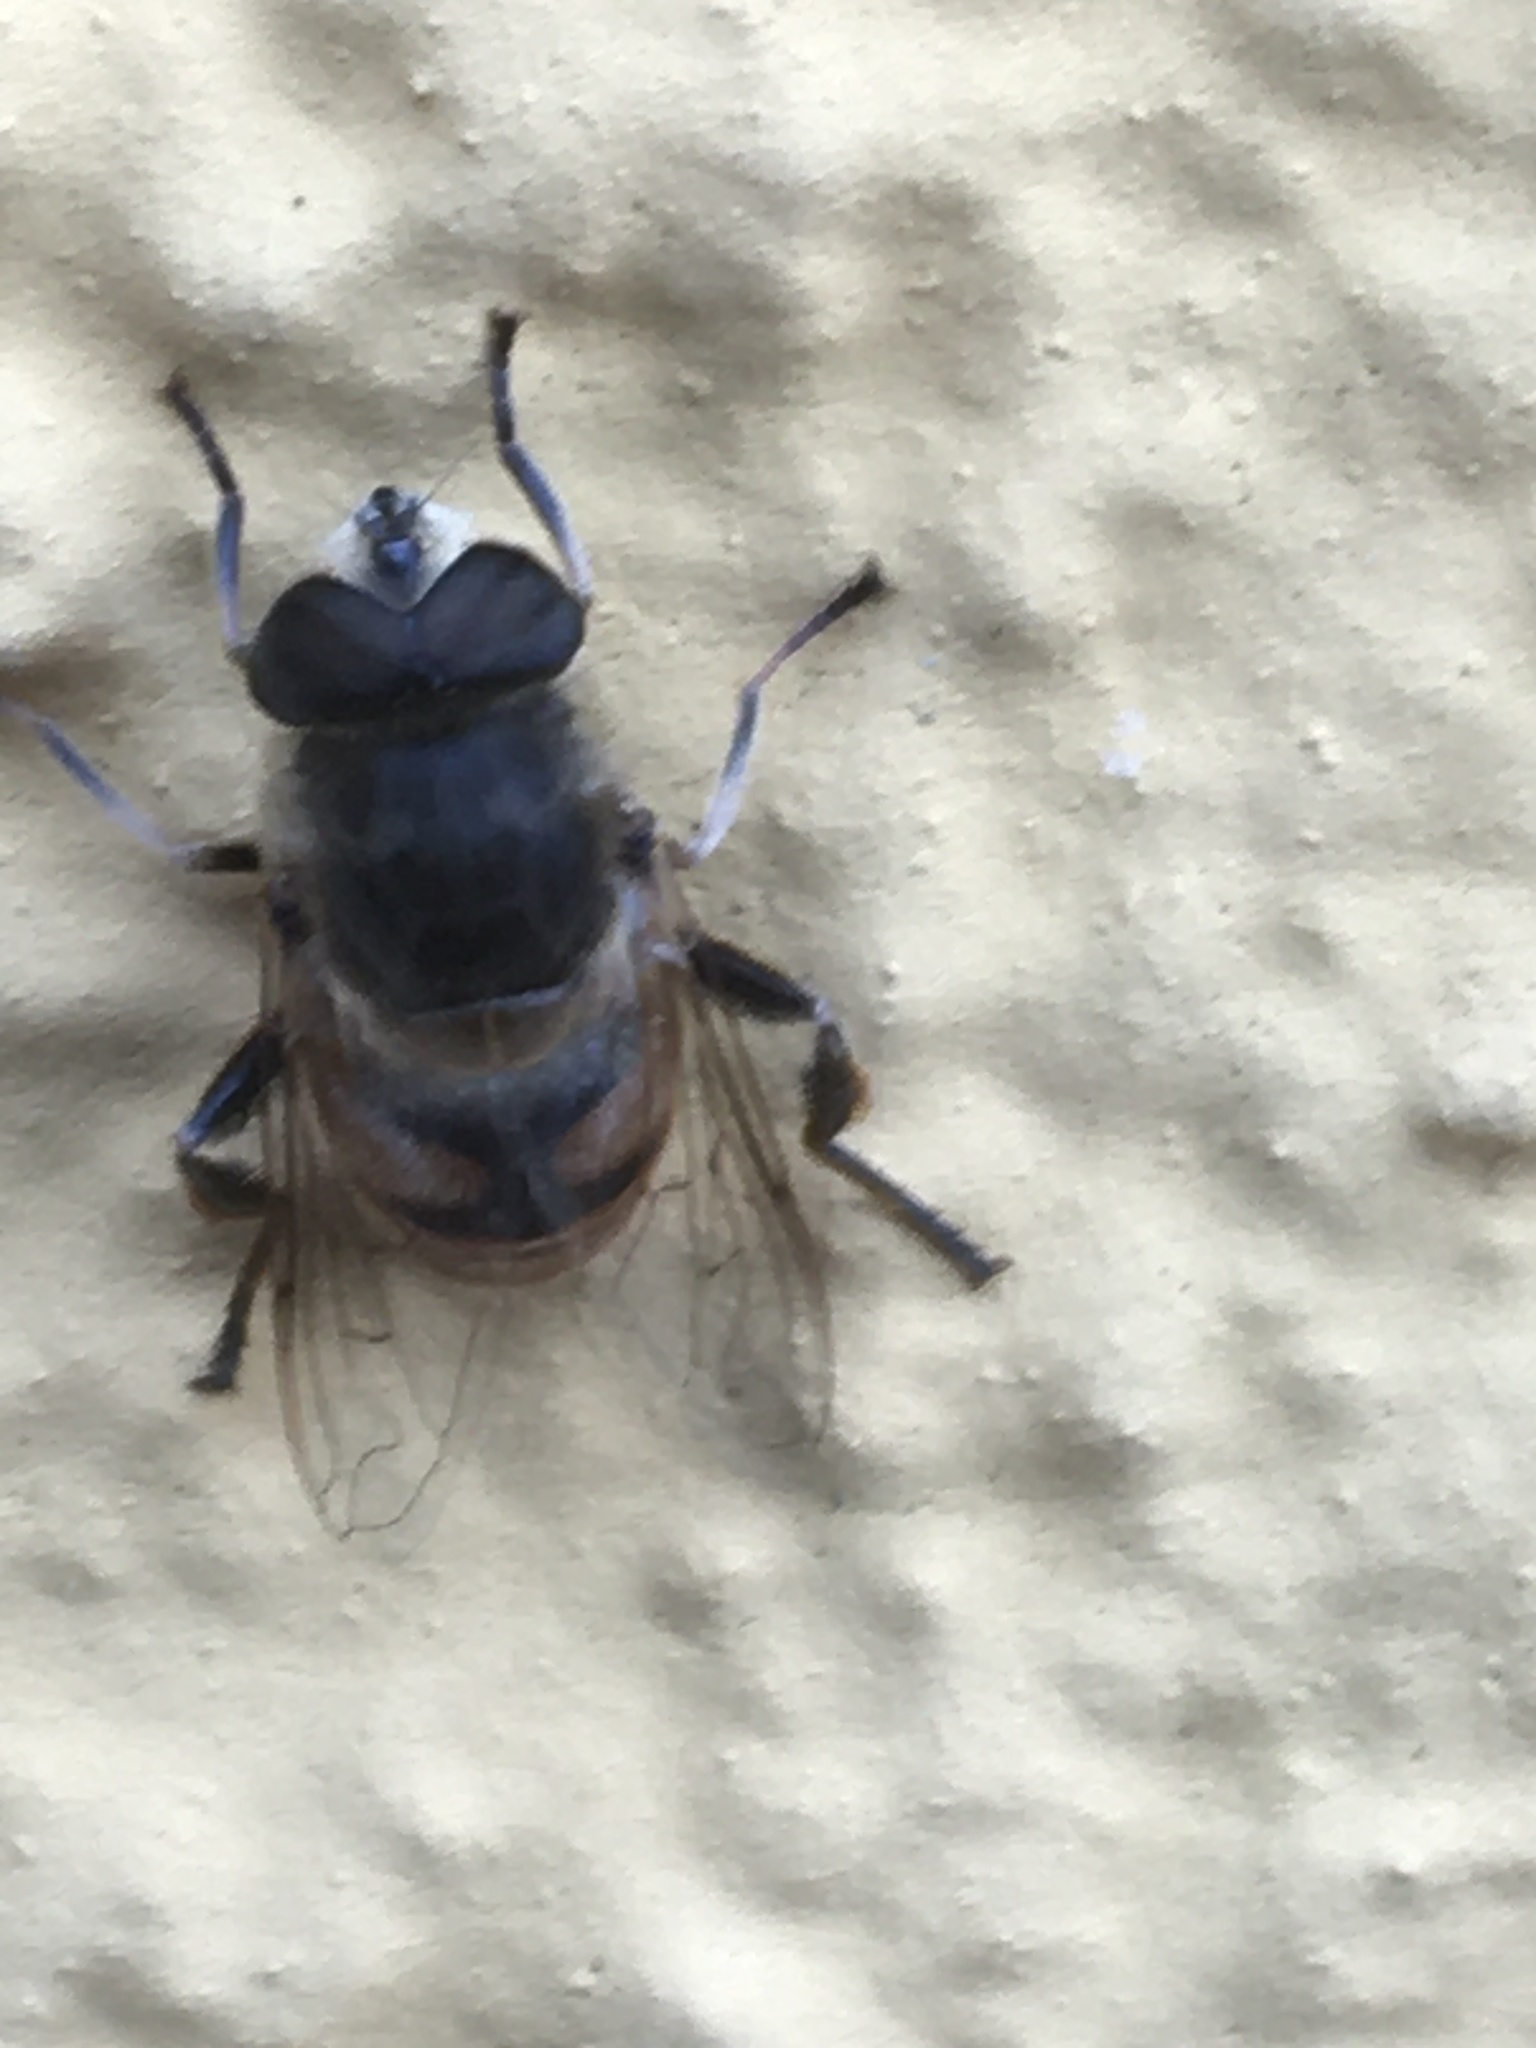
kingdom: Animalia
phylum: Arthropoda
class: Insecta
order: Diptera
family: Syrphidae
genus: Eristalis
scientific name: Eristalis tenax
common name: Drone fly
